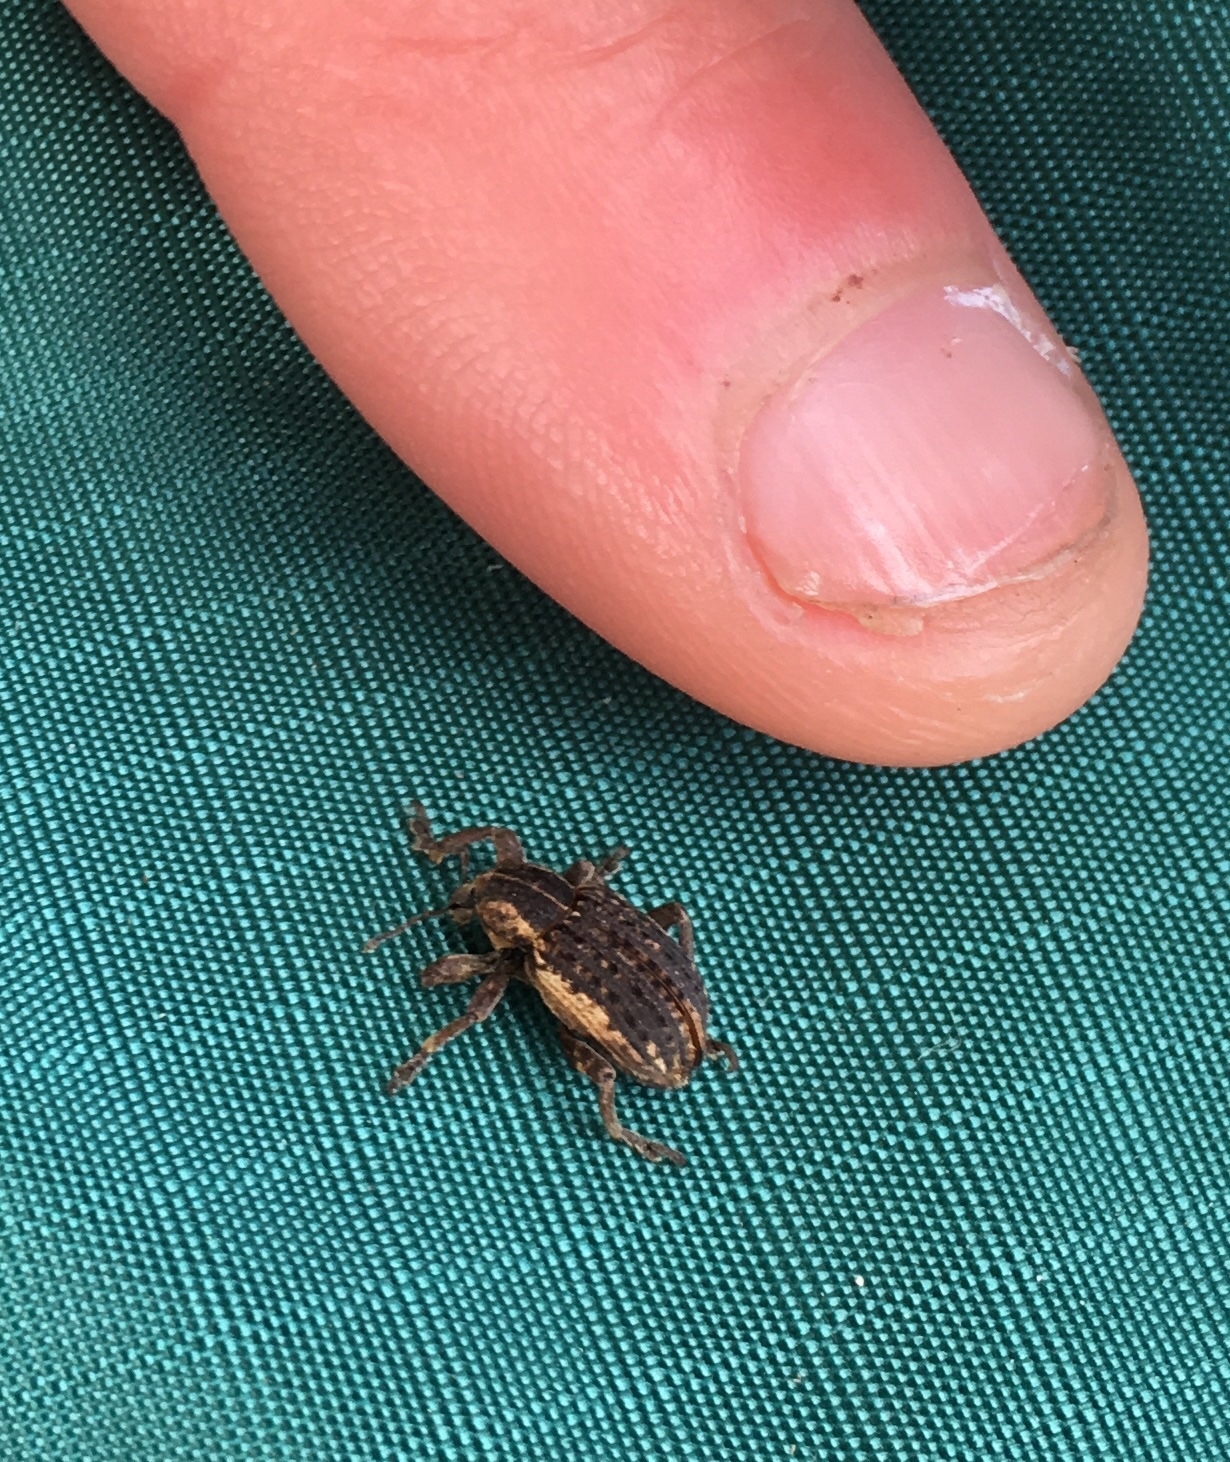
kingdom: Animalia
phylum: Arthropoda
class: Insecta
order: Coleoptera
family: Curculionidae
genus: Brachypera
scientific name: Brachypera zoilus
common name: Clover leaf weevil
